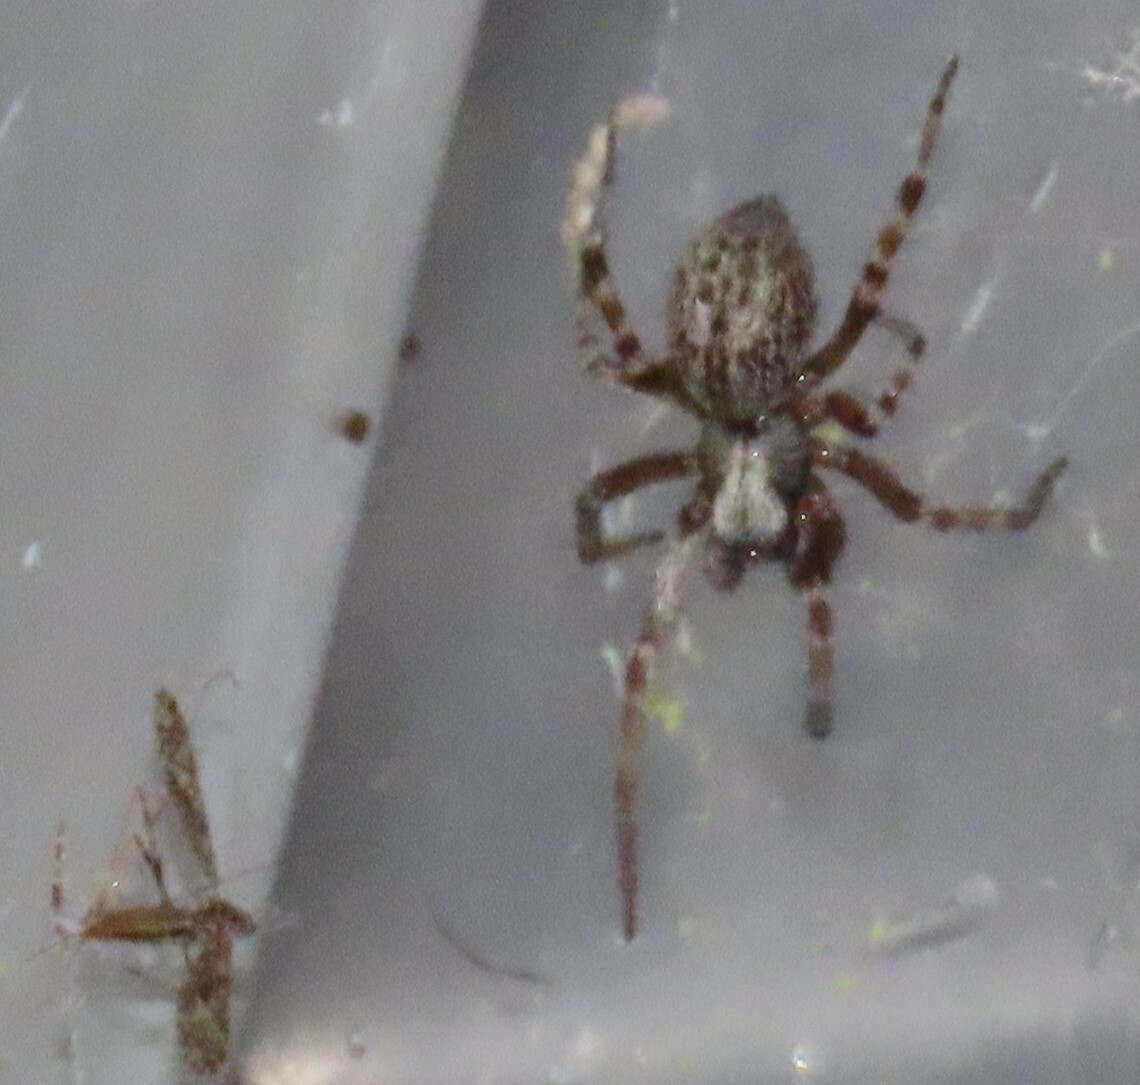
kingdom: Animalia
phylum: Arthropoda
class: Arachnida
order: Araneae
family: Desidae
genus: Badumna
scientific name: Badumna longinqua
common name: Gray house spider
